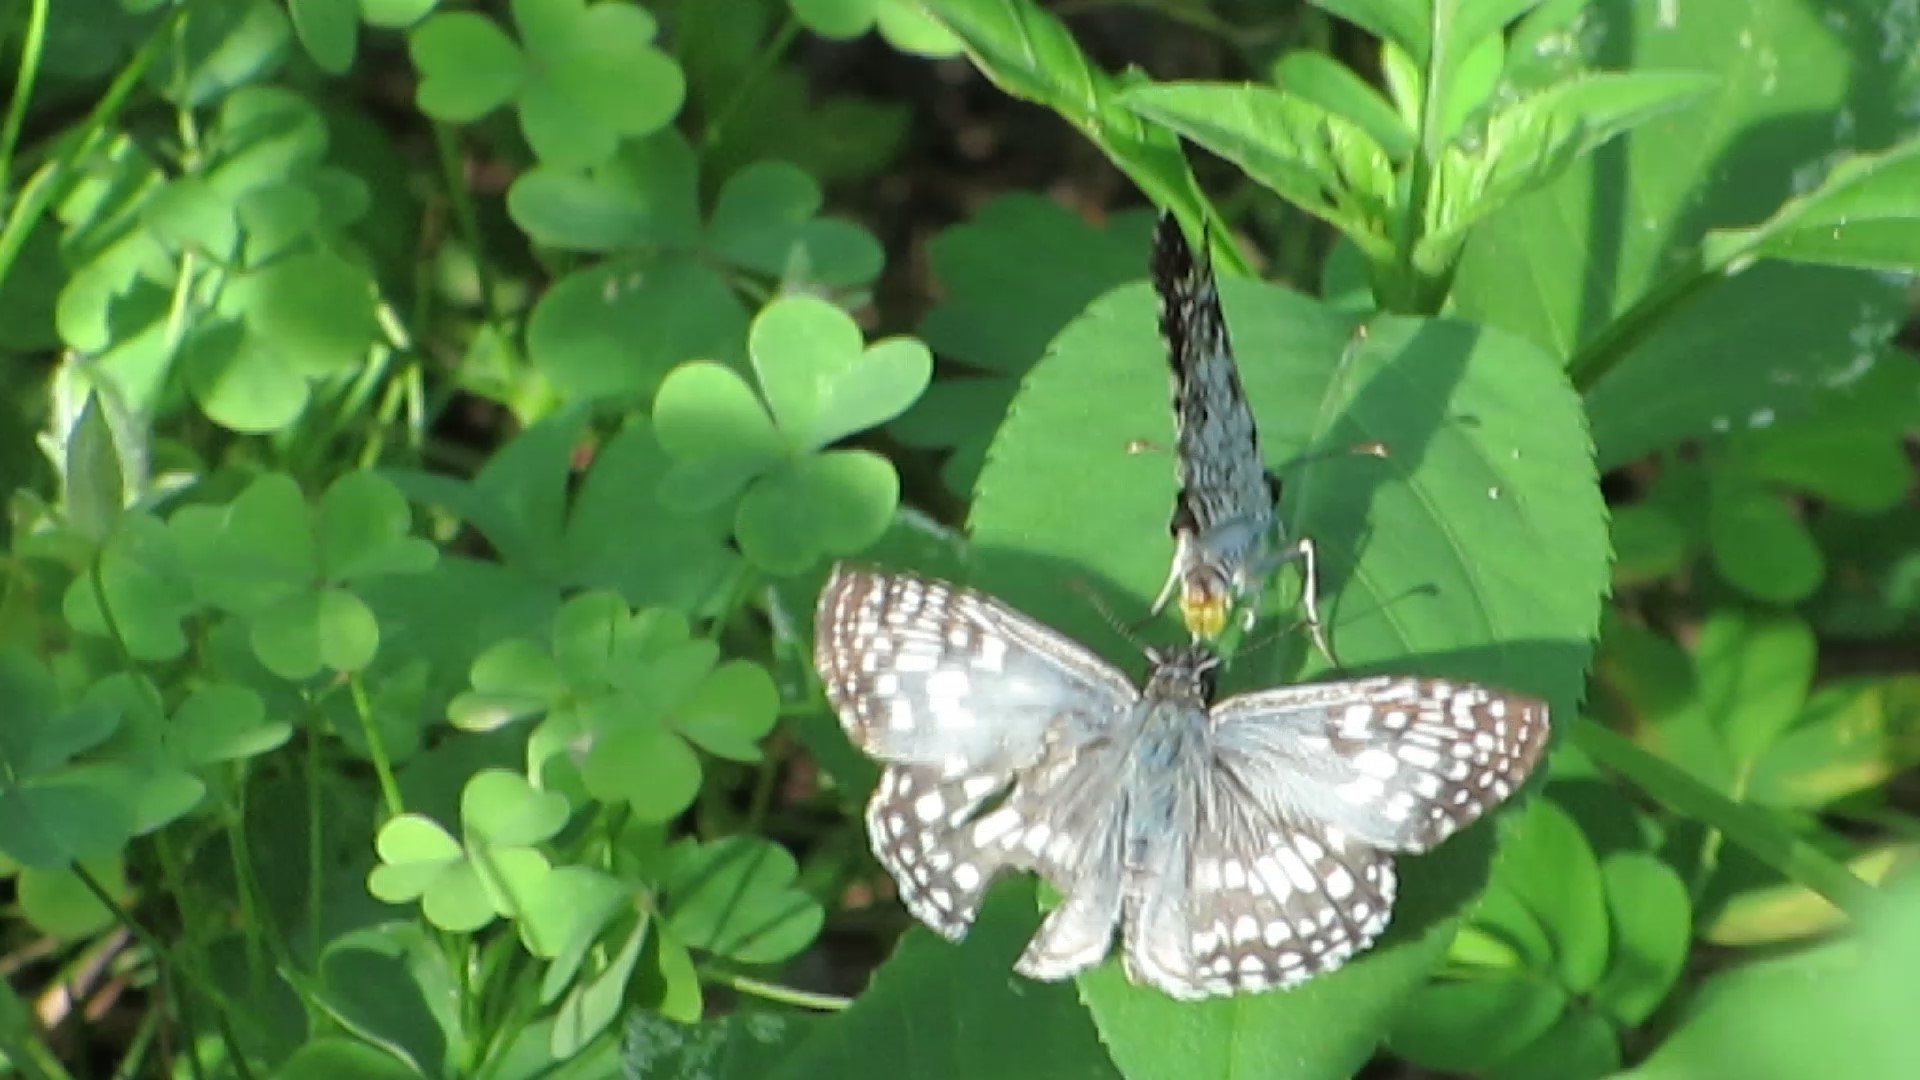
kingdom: Animalia
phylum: Arthropoda
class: Insecta
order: Lepidoptera
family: Hesperiidae
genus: Pyrgus
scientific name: Pyrgus oileus
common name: Tropical checkered-skipper
